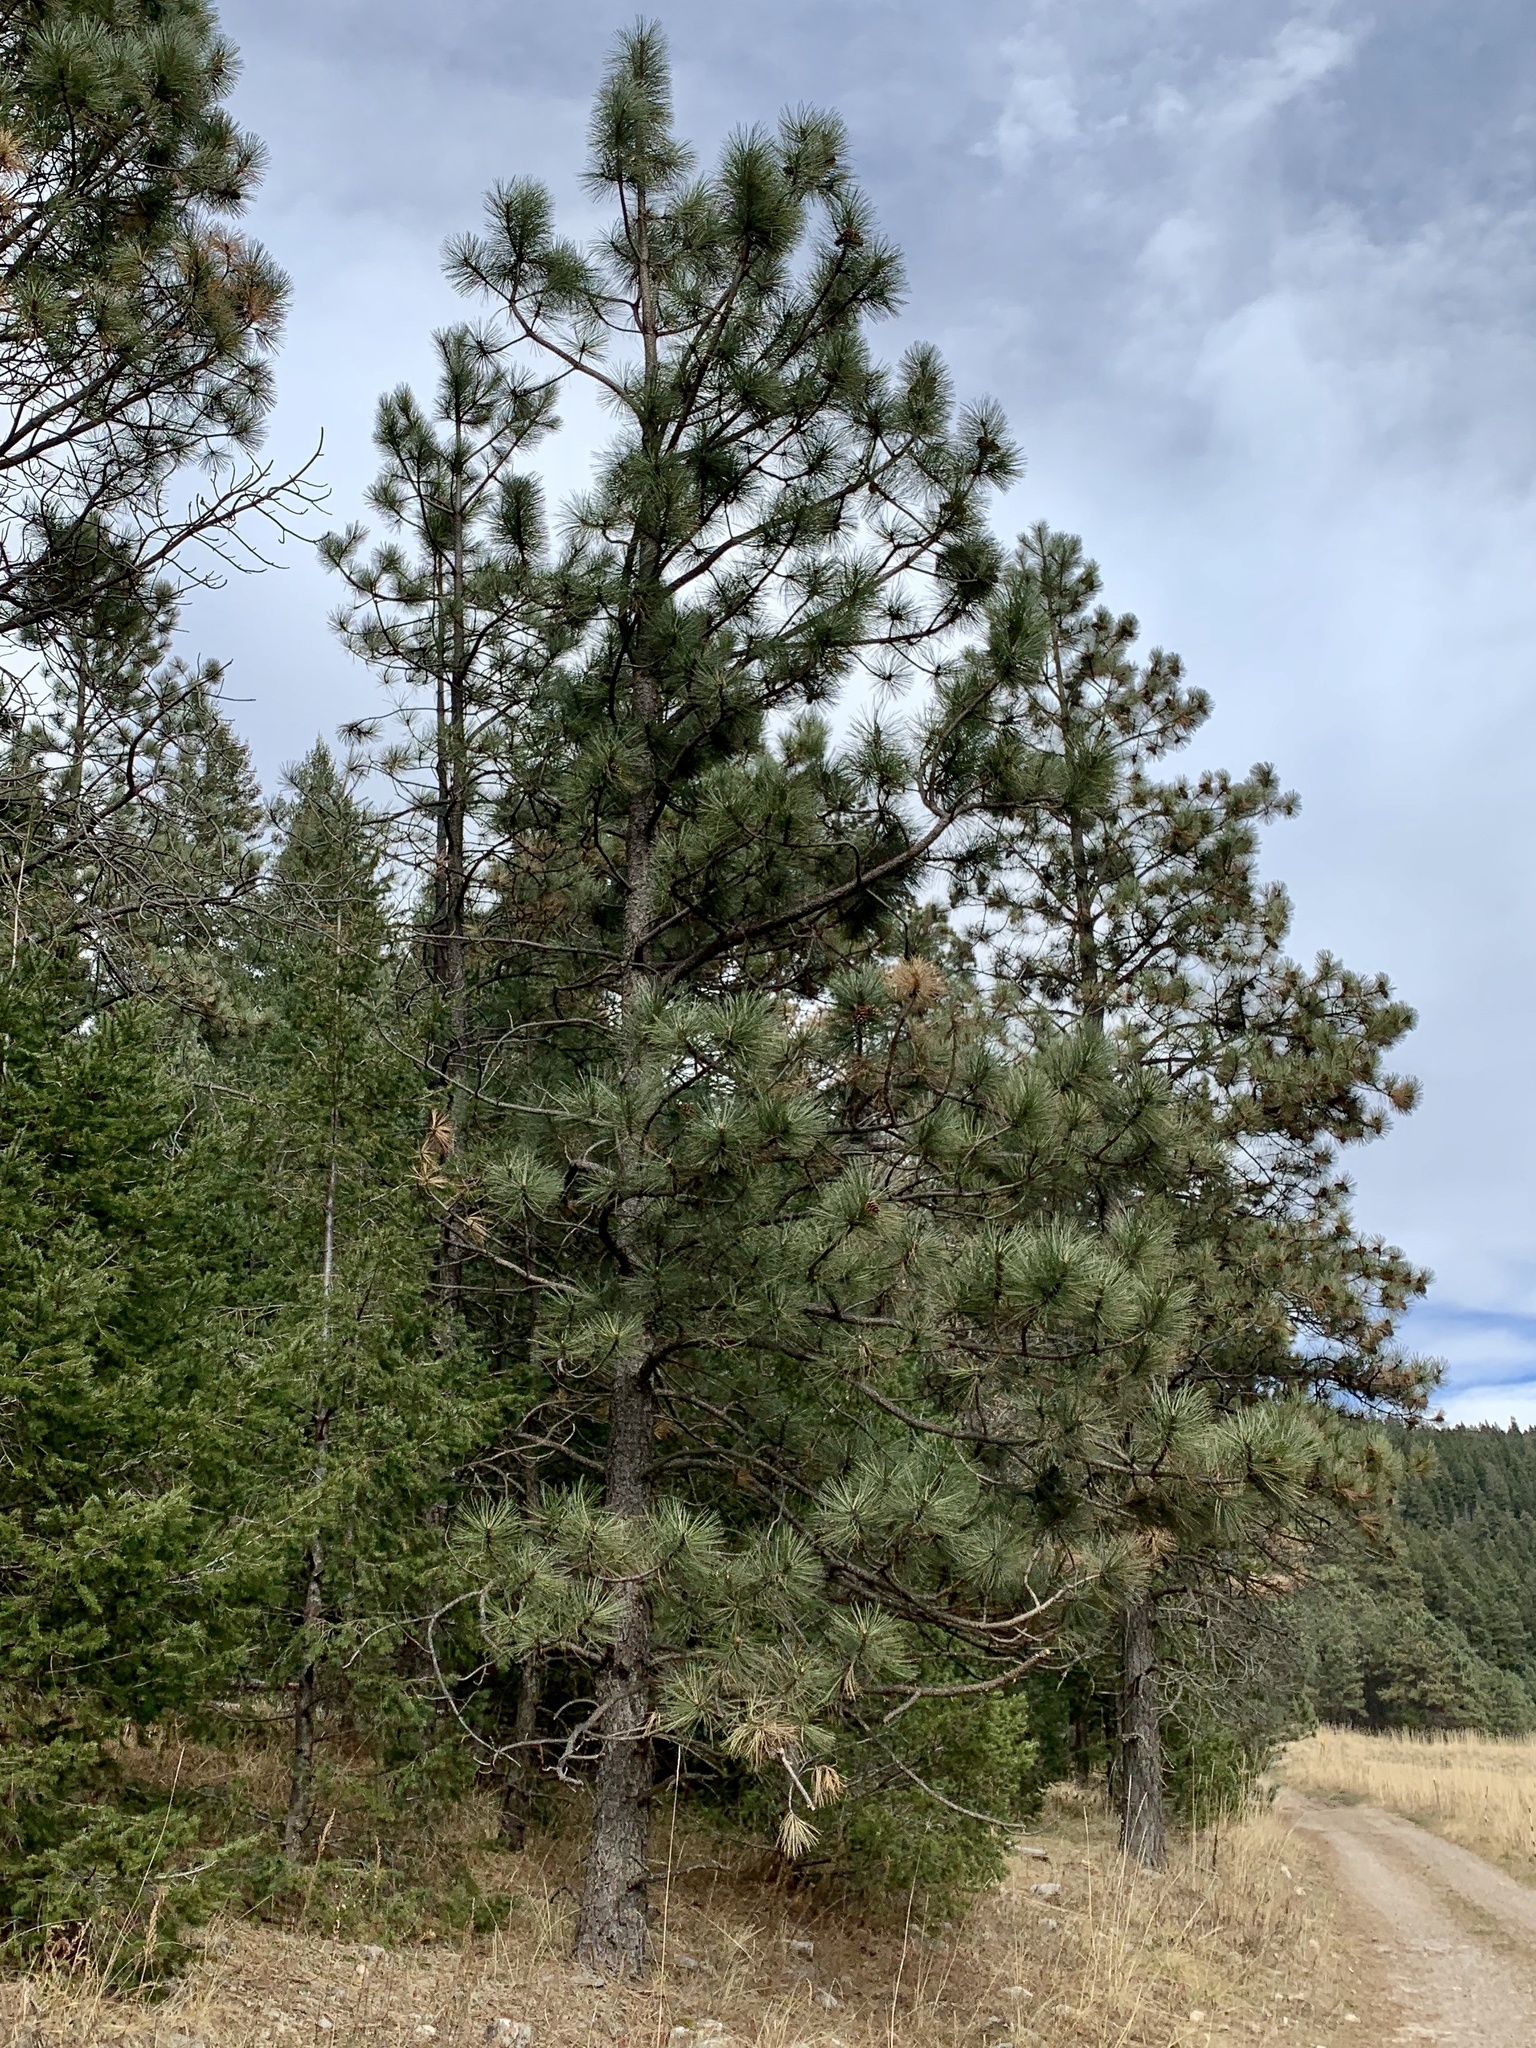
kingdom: Plantae
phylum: Tracheophyta
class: Pinopsida
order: Pinales
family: Pinaceae
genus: Pinus
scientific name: Pinus ponderosa
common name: Western yellow-pine
